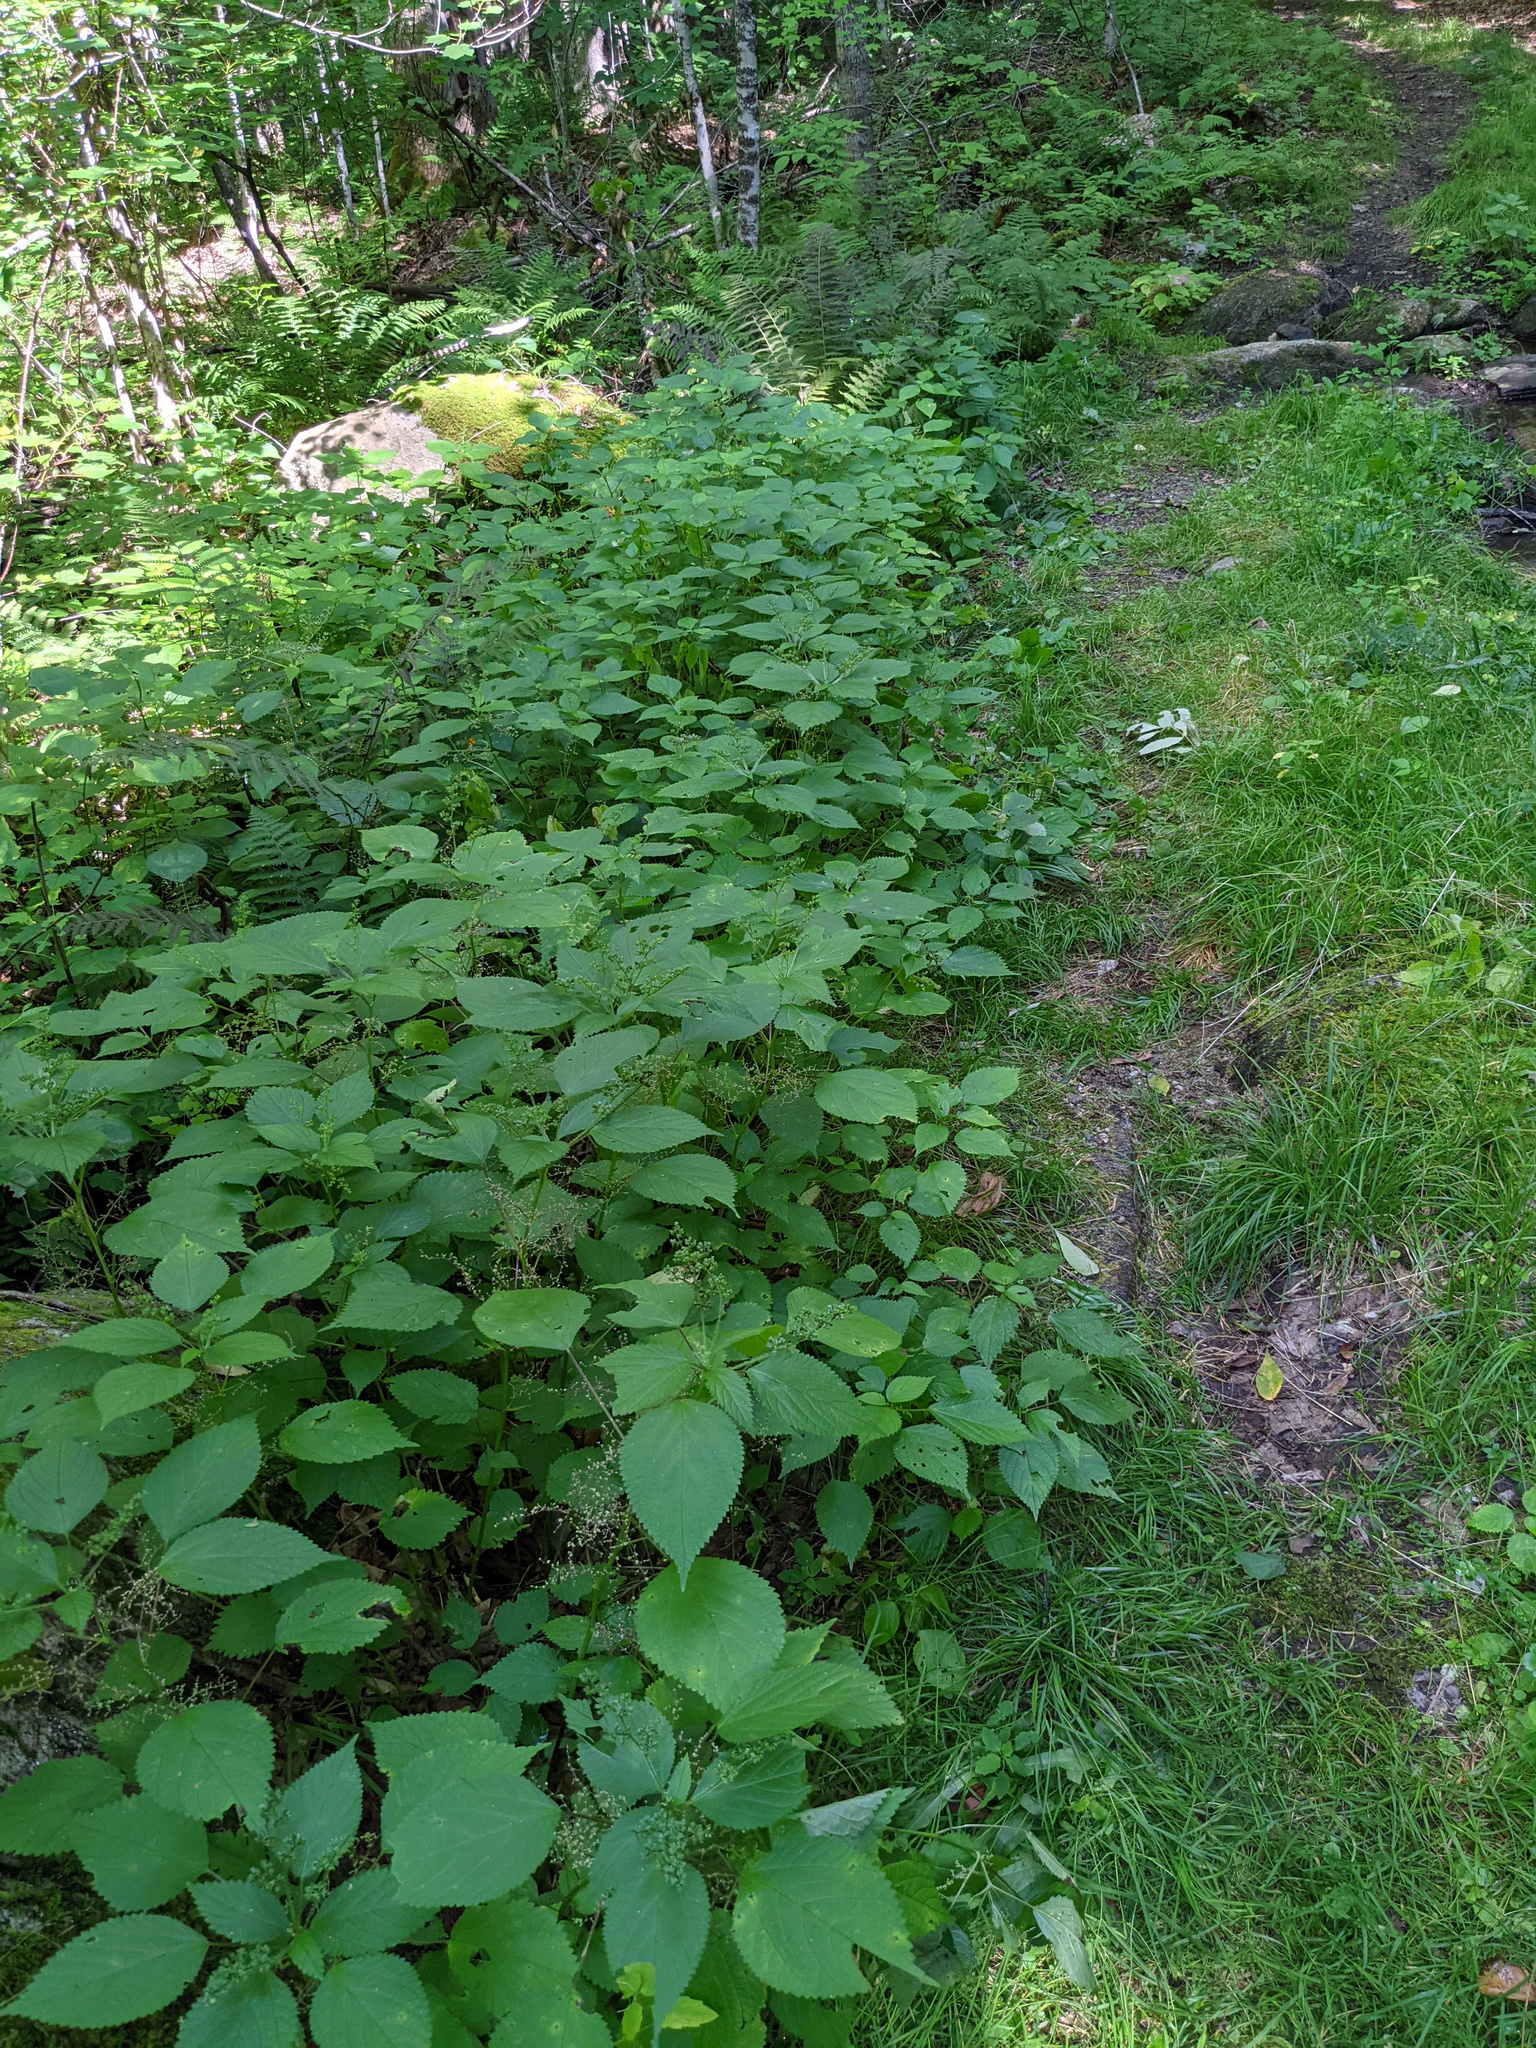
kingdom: Plantae
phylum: Tracheophyta
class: Magnoliopsida
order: Rosales
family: Urticaceae
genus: Laportea
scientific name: Laportea canadensis
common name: Canada nettle
